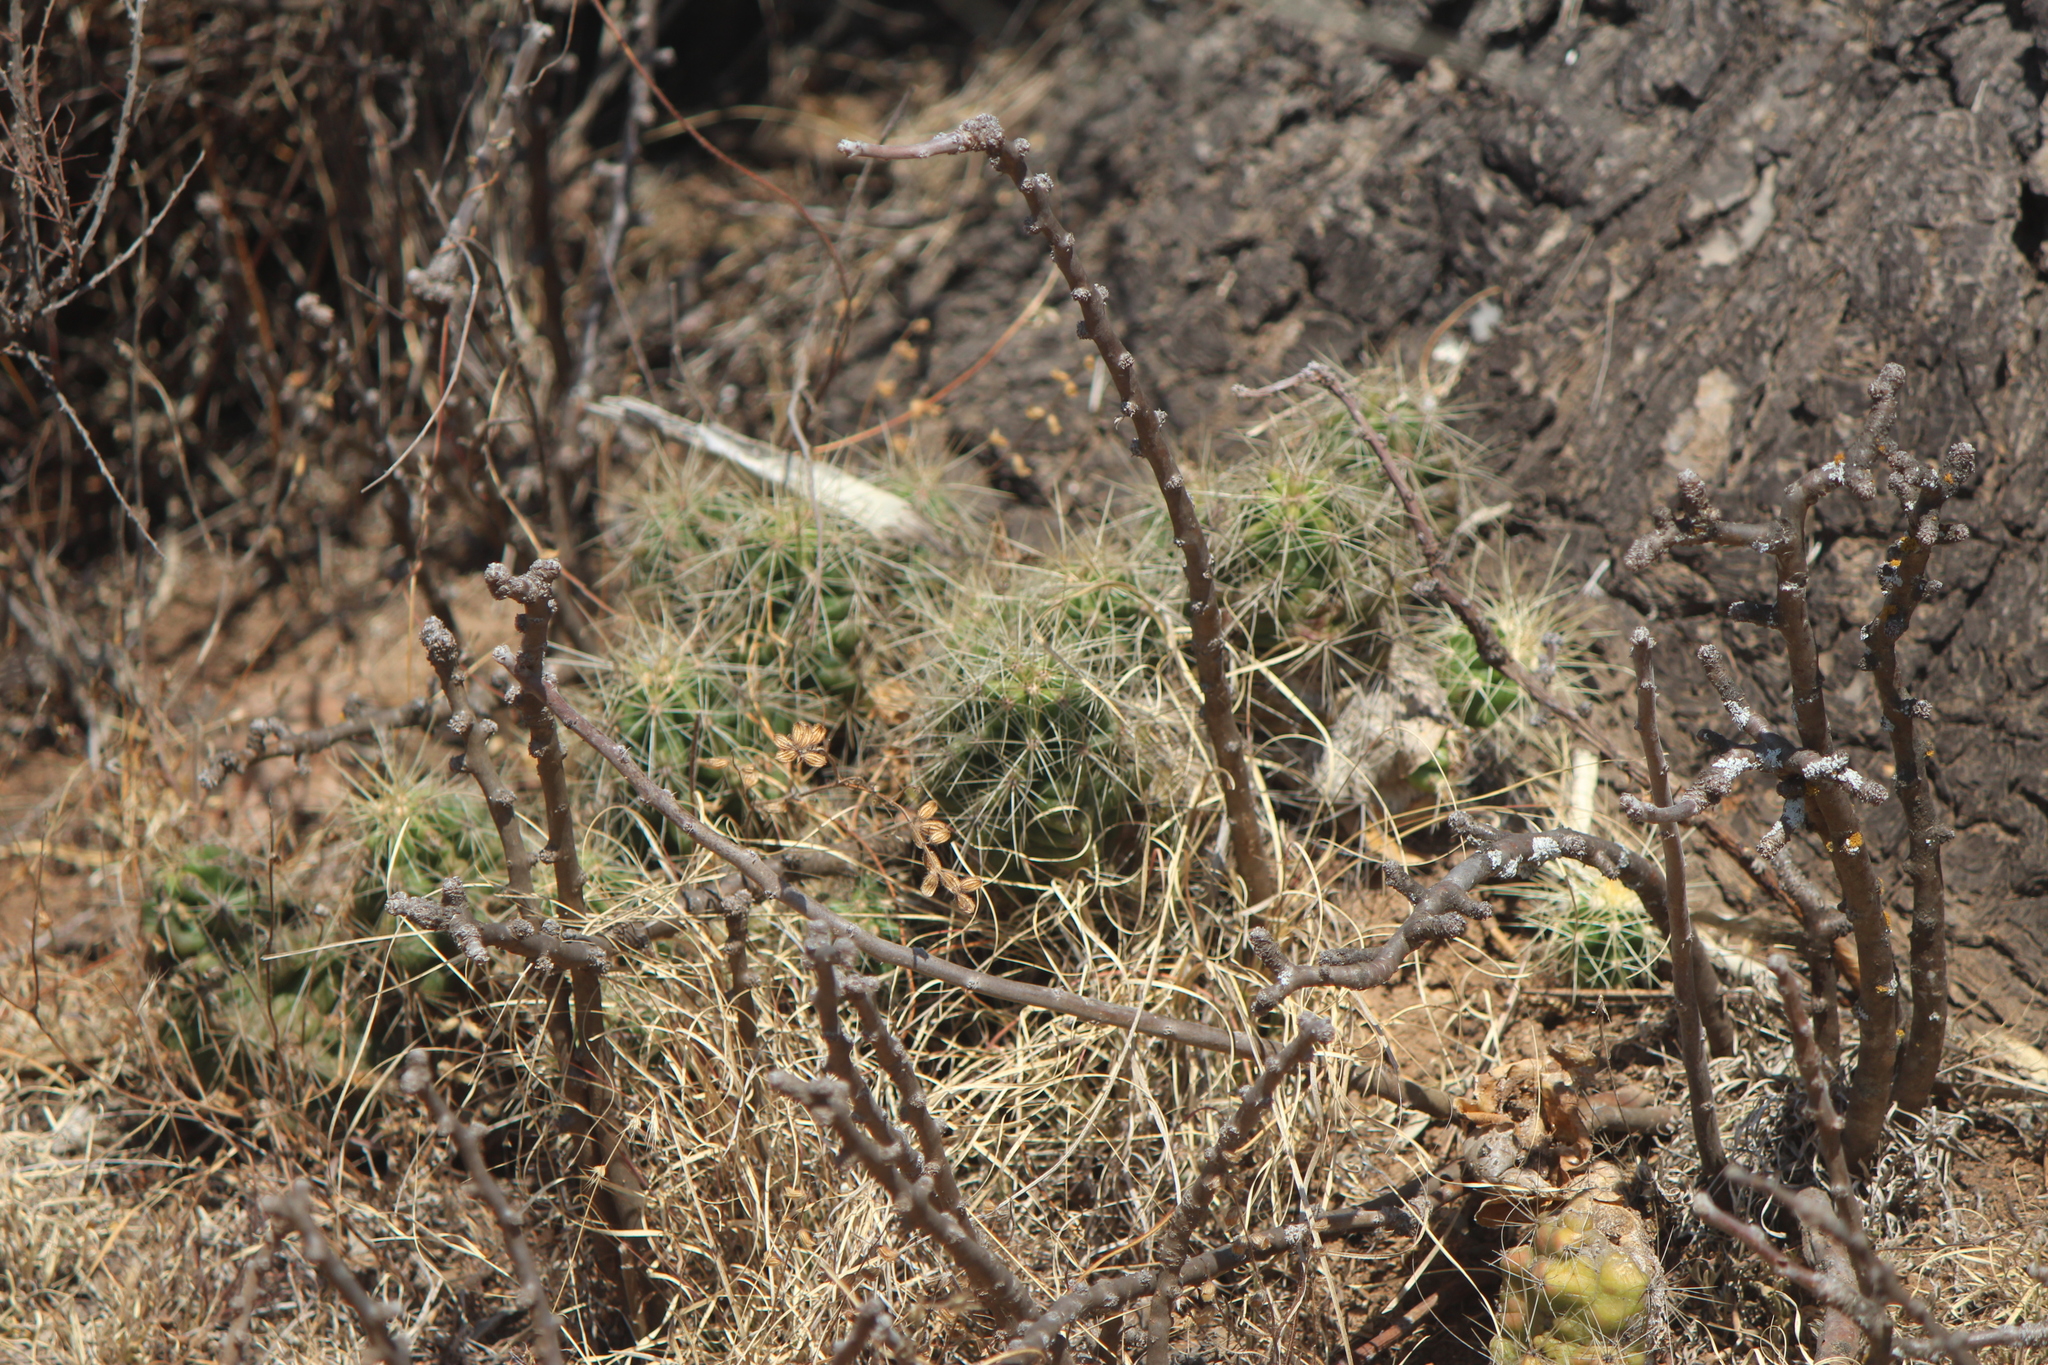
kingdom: Plantae
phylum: Tracheophyta
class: Magnoliopsida
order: Caryophyllales
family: Cactaceae
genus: Echinocereus
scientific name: Echinocereus cinerascens
